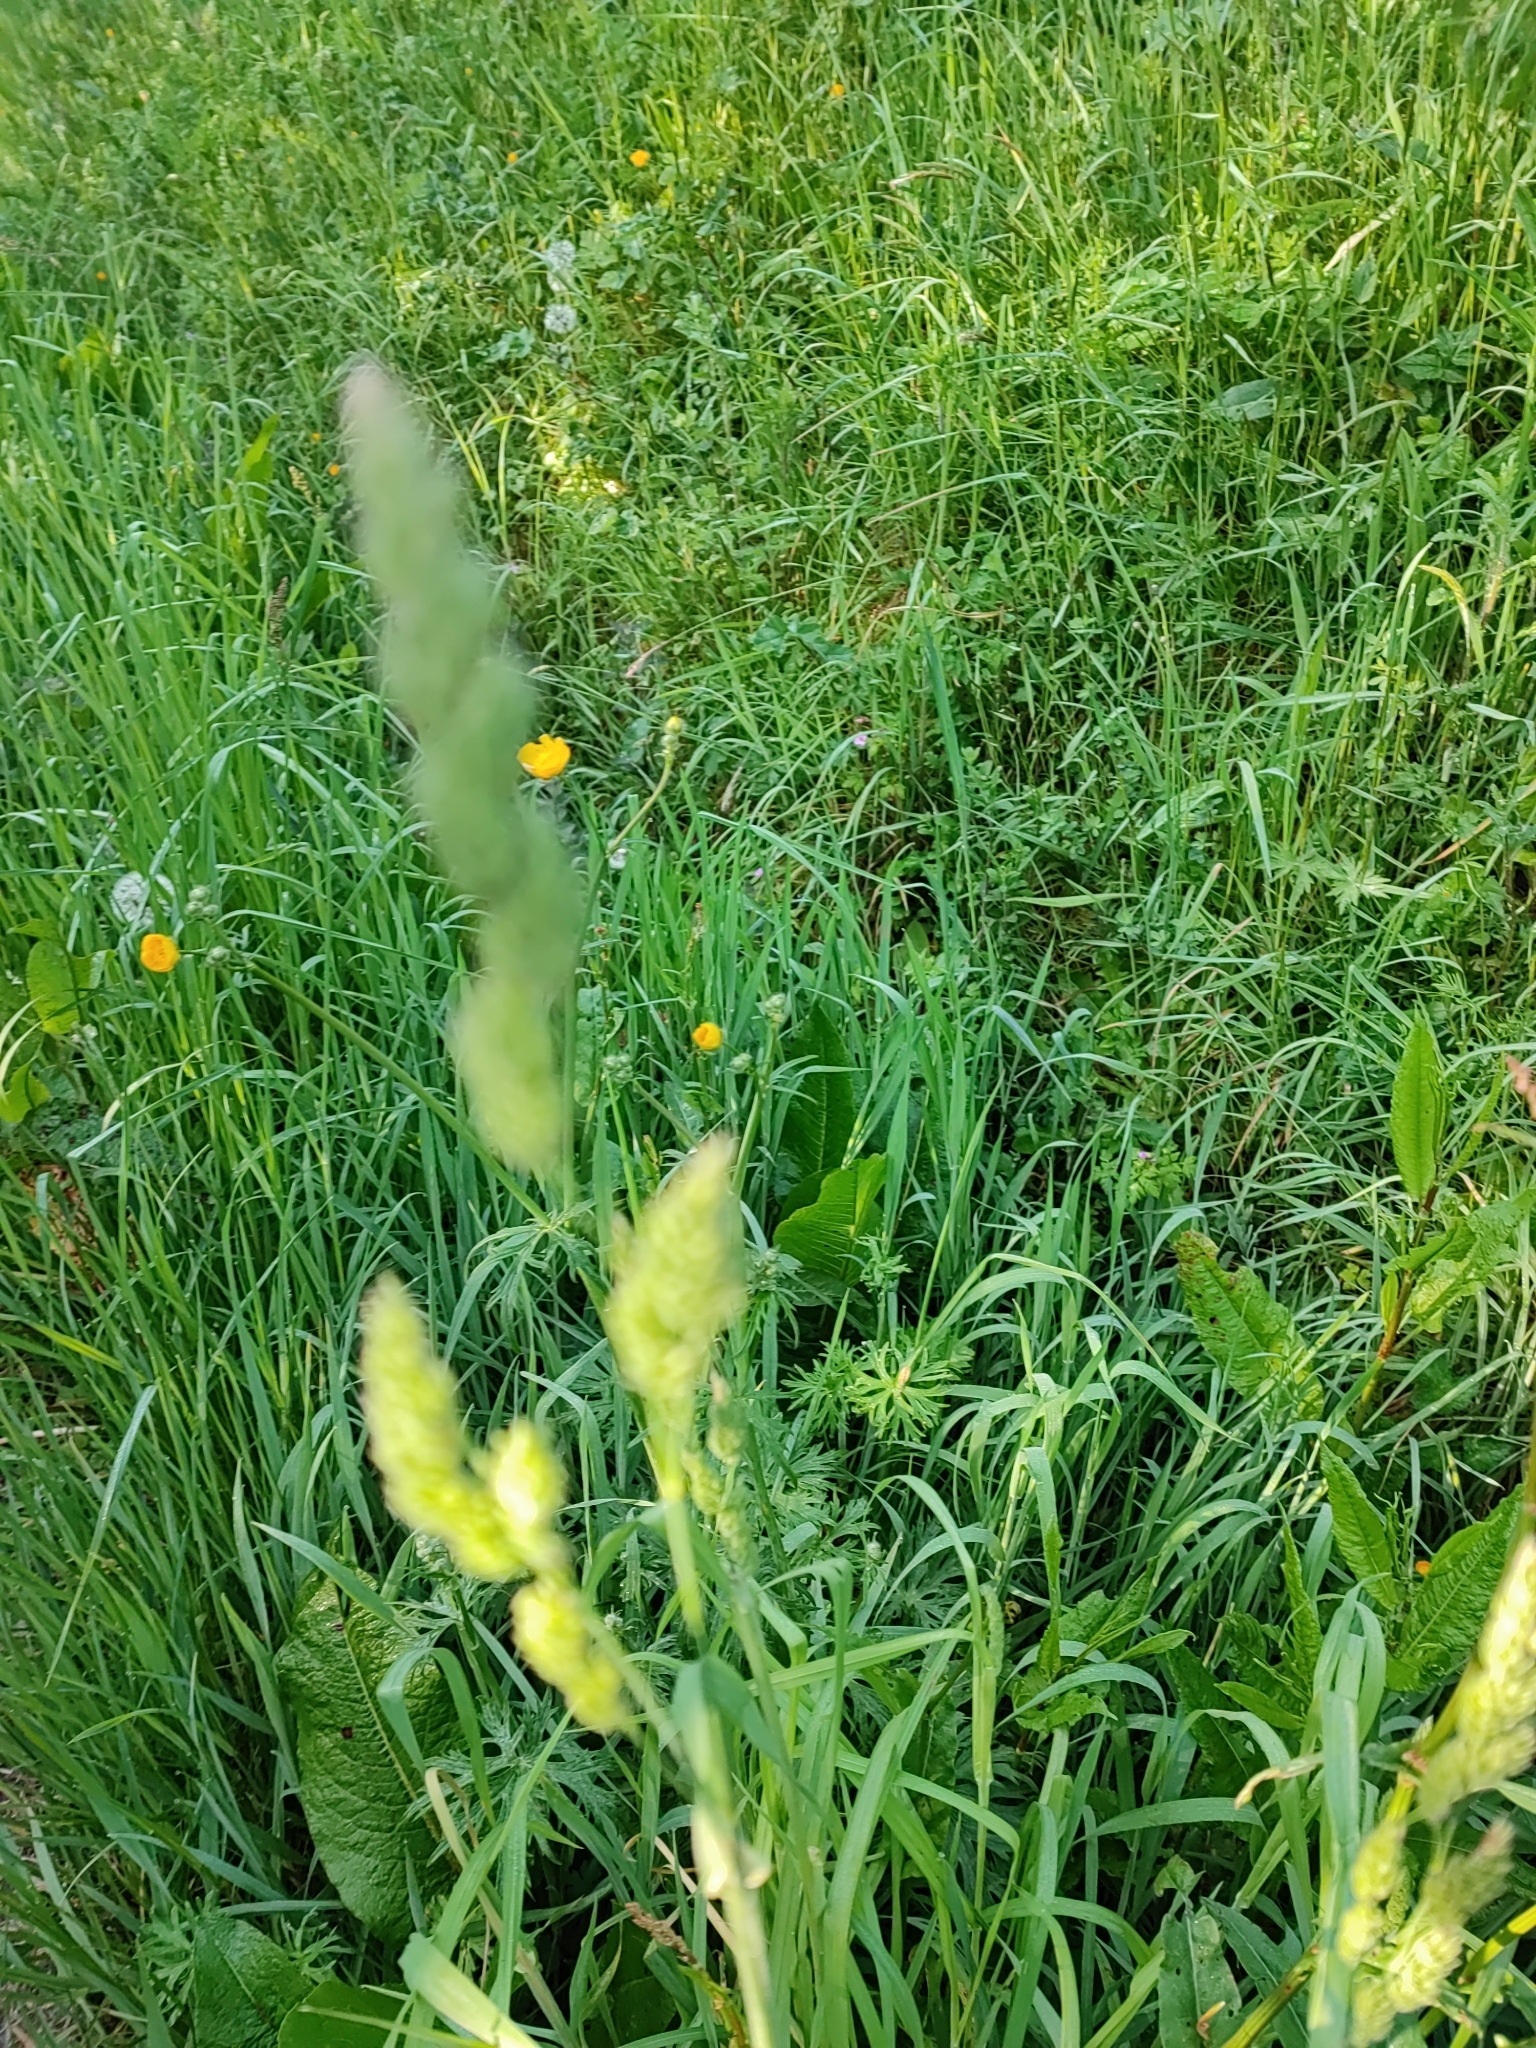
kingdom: Plantae
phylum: Tracheophyta
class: Liliopsida
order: Poales
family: Poaceae
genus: Dactylis
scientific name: Dactylis glomerata
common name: Orchardgrass
